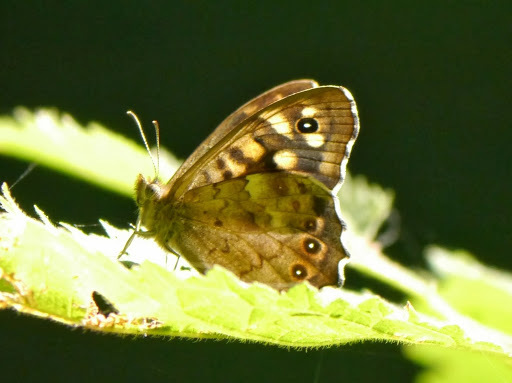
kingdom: Animalia
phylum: Arthropoda
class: Insecta
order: Lepidoptera
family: Nymphalidae
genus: Pararge
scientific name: Pararge aegeria
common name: Speckled wood
